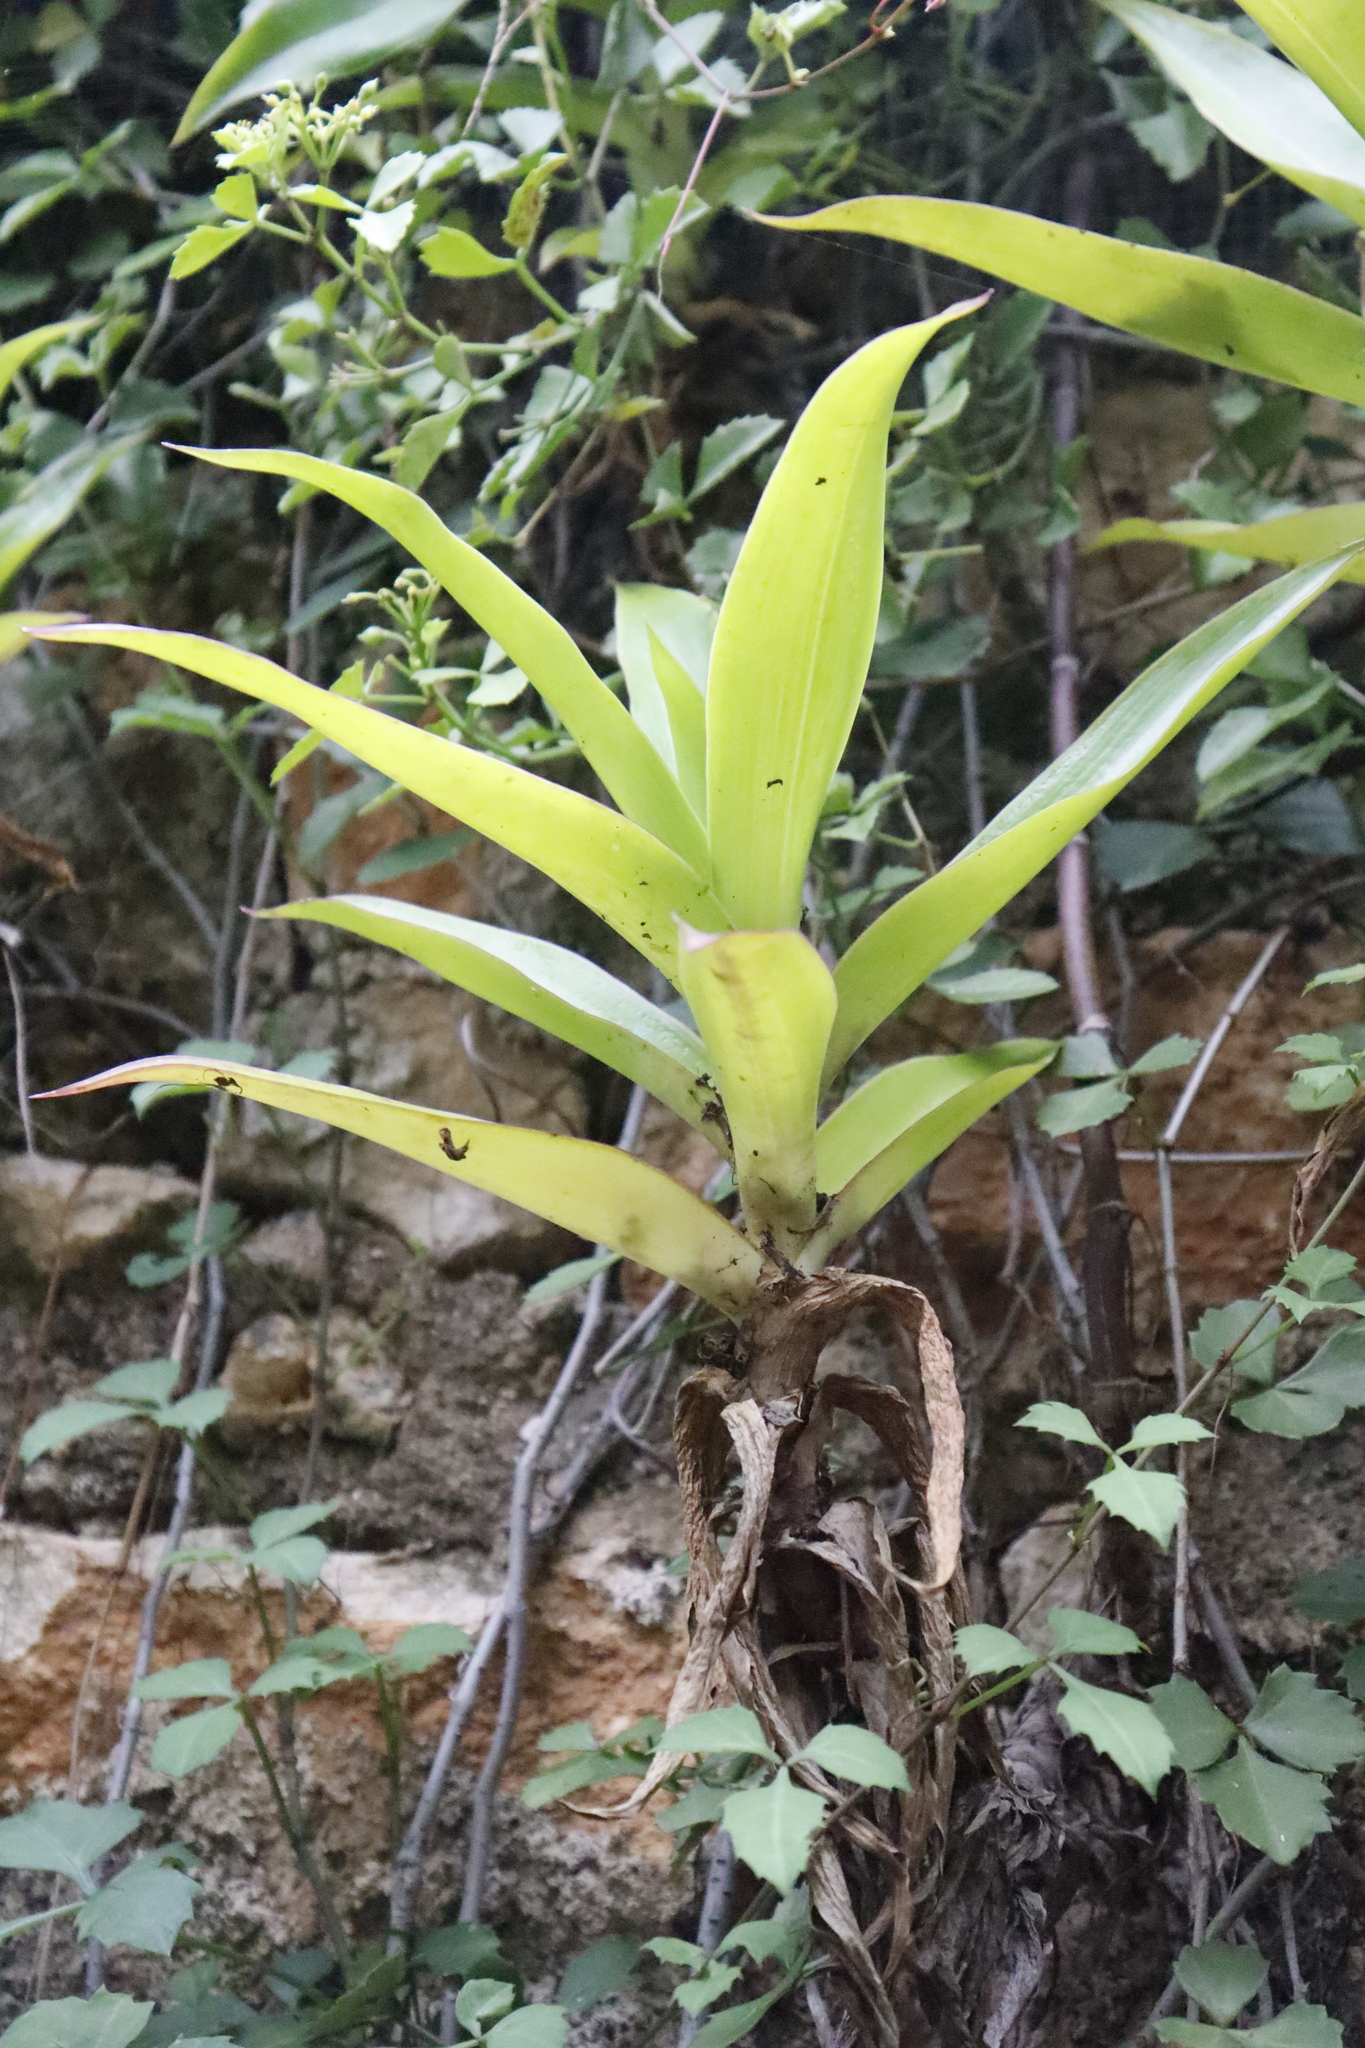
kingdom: Plantae
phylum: Tracheophyta
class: Liliopsida
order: Commelinales
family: Commelinaceae
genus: Callisia
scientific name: Callisia fragrans
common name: Basketplant
